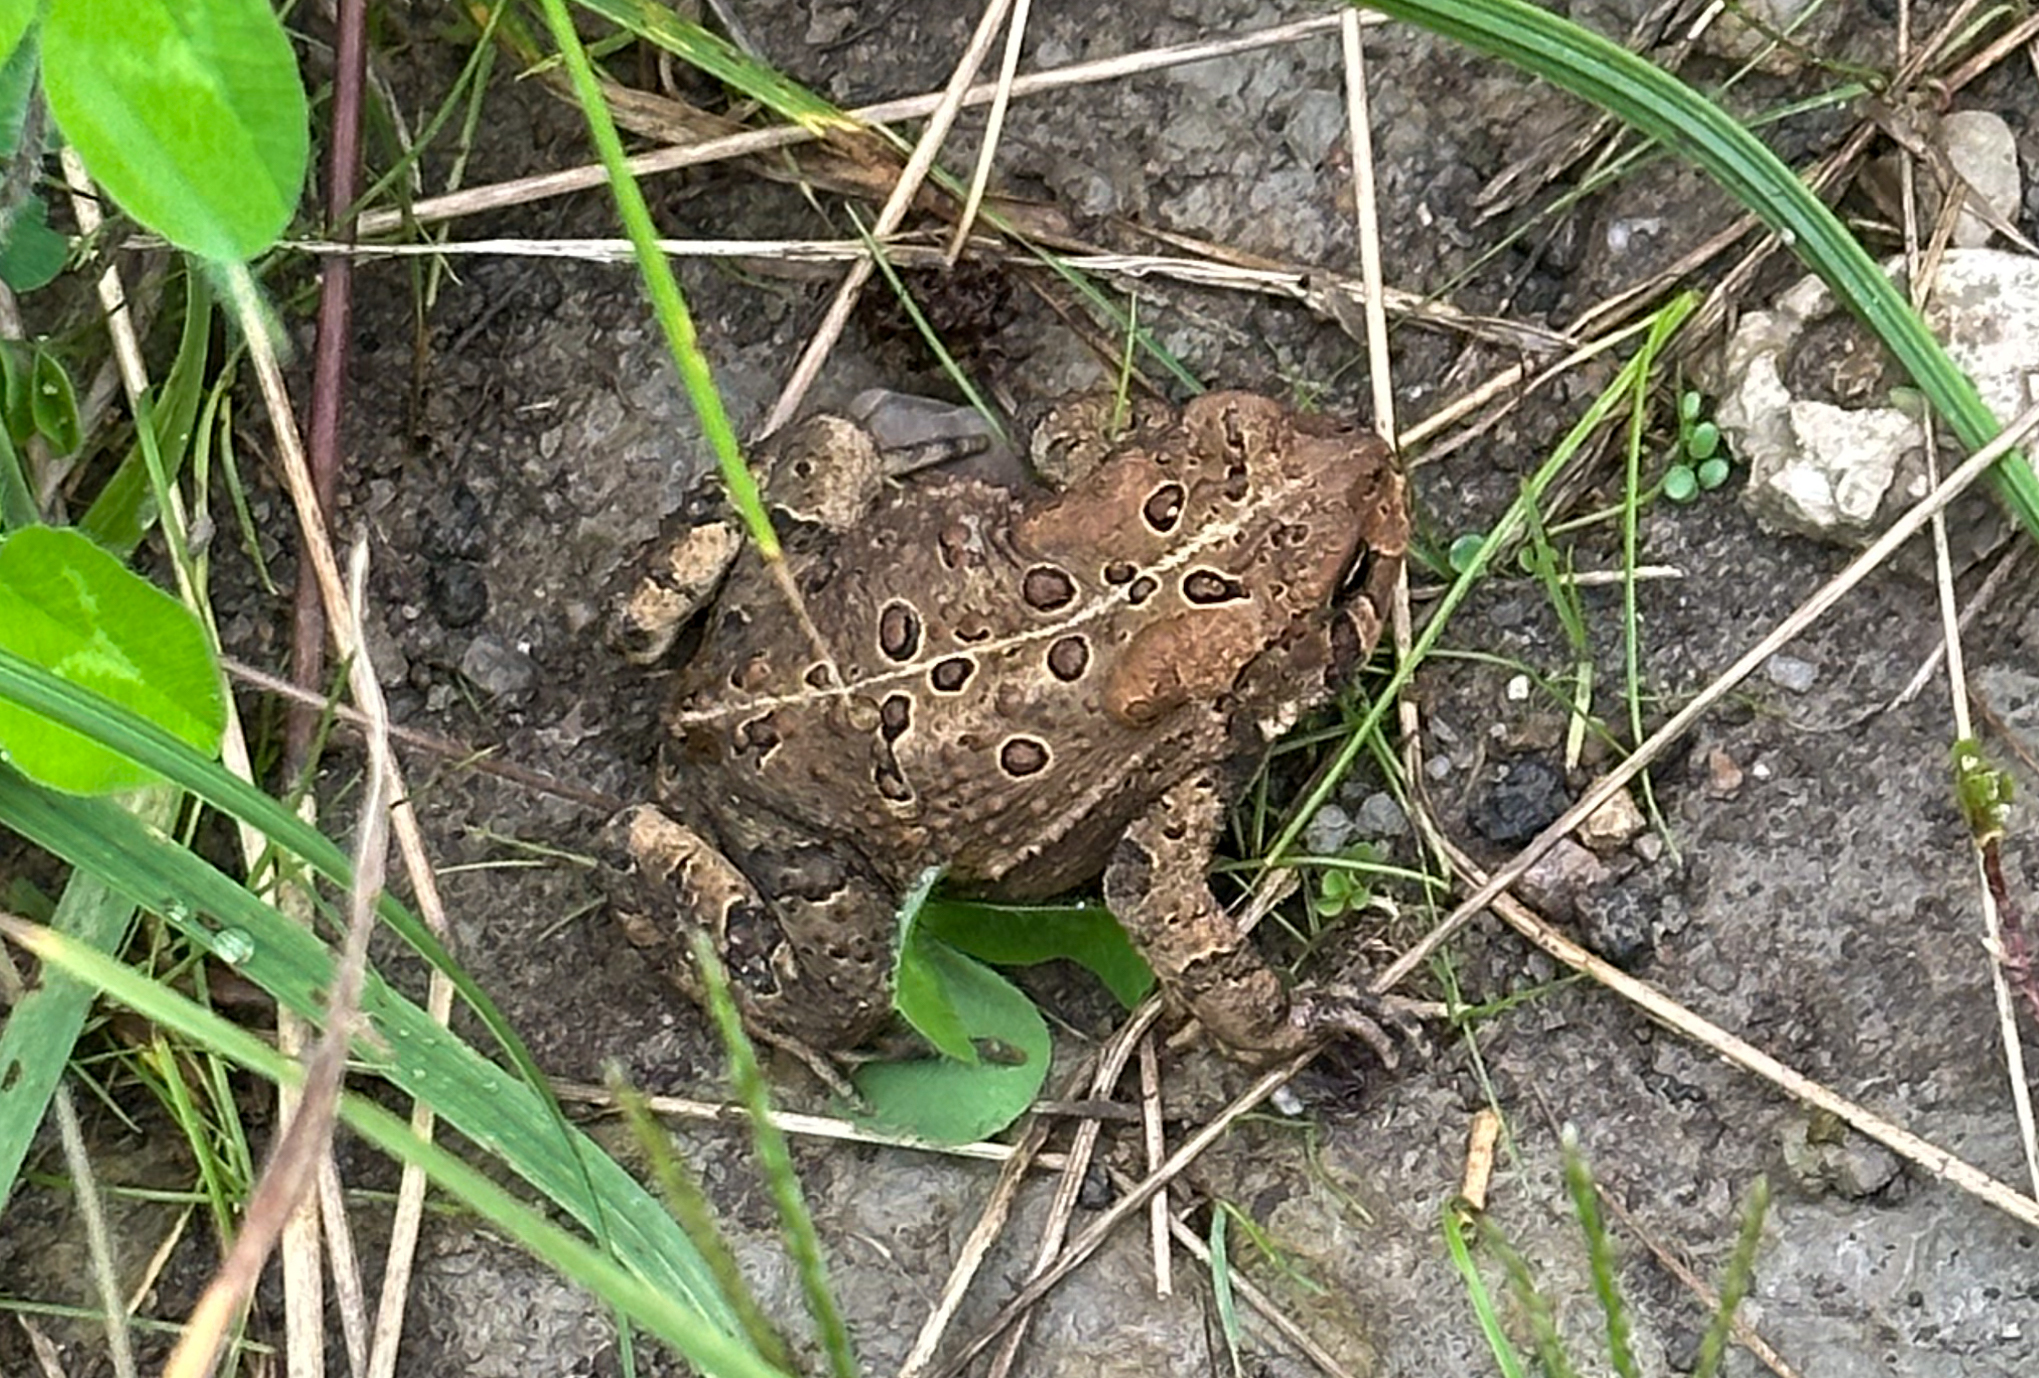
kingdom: Animalia
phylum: Chordata
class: Amphibia
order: Anura
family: Bufonidae
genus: Anaxyrus
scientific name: Anaxyrus americanus
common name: American toad
